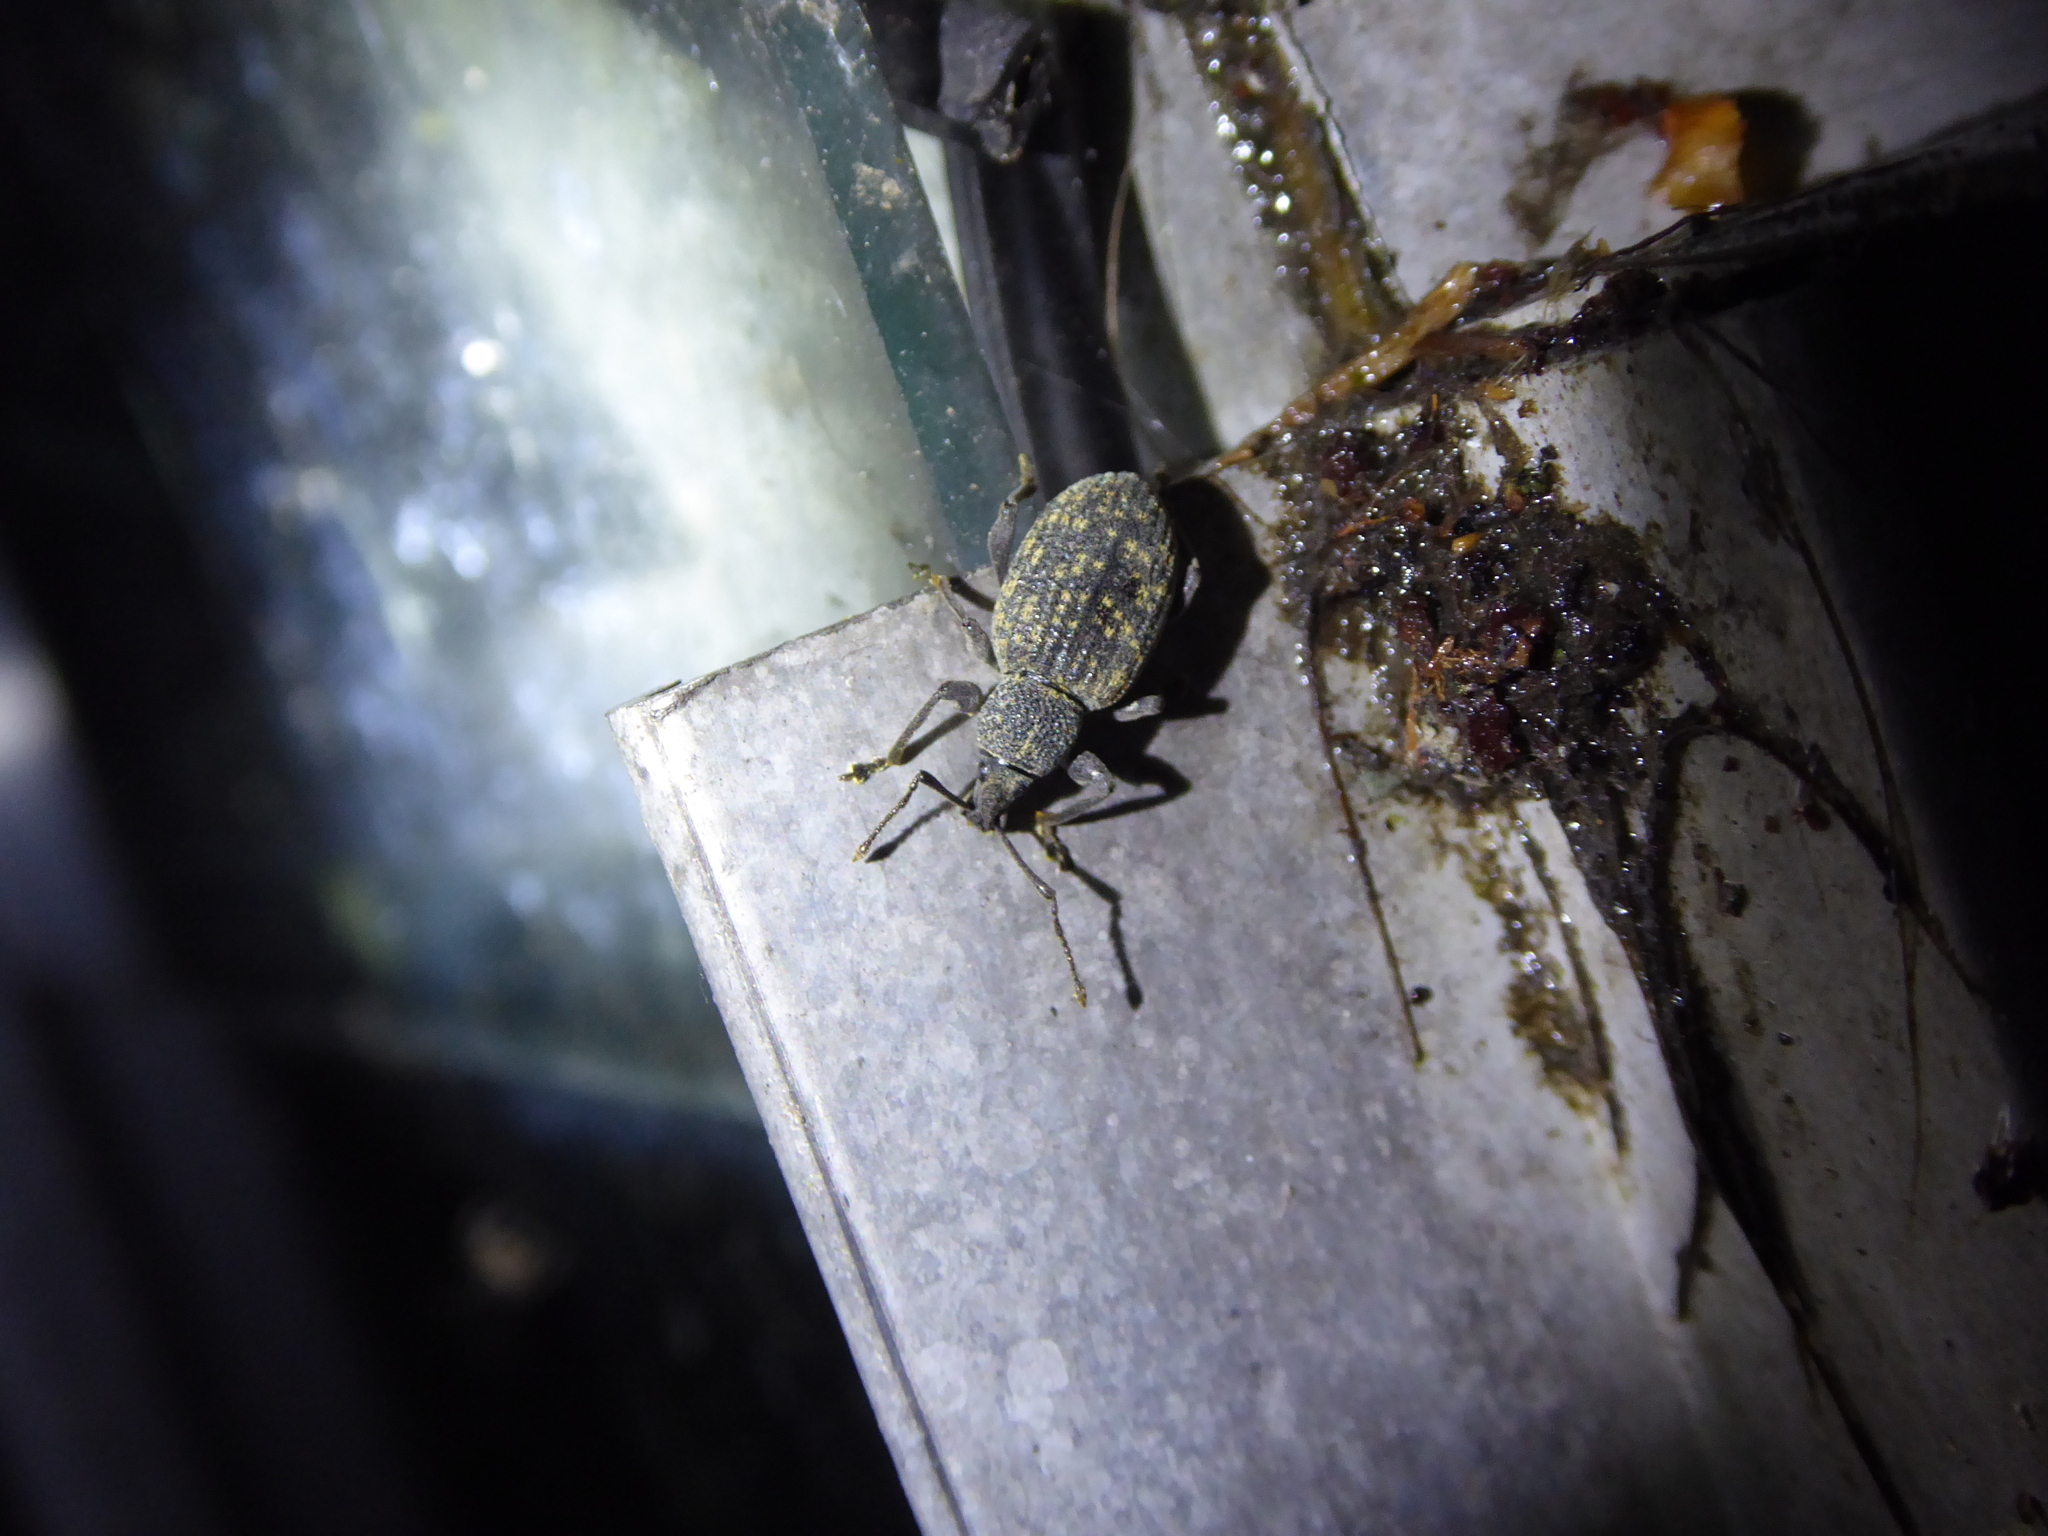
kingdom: Animalia
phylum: Arthropoda
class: Insecta
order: Coleoptera
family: Curculionidae
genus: Otiorhynchus
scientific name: Otiorhynchus sulcatus
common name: Black vine weevil
